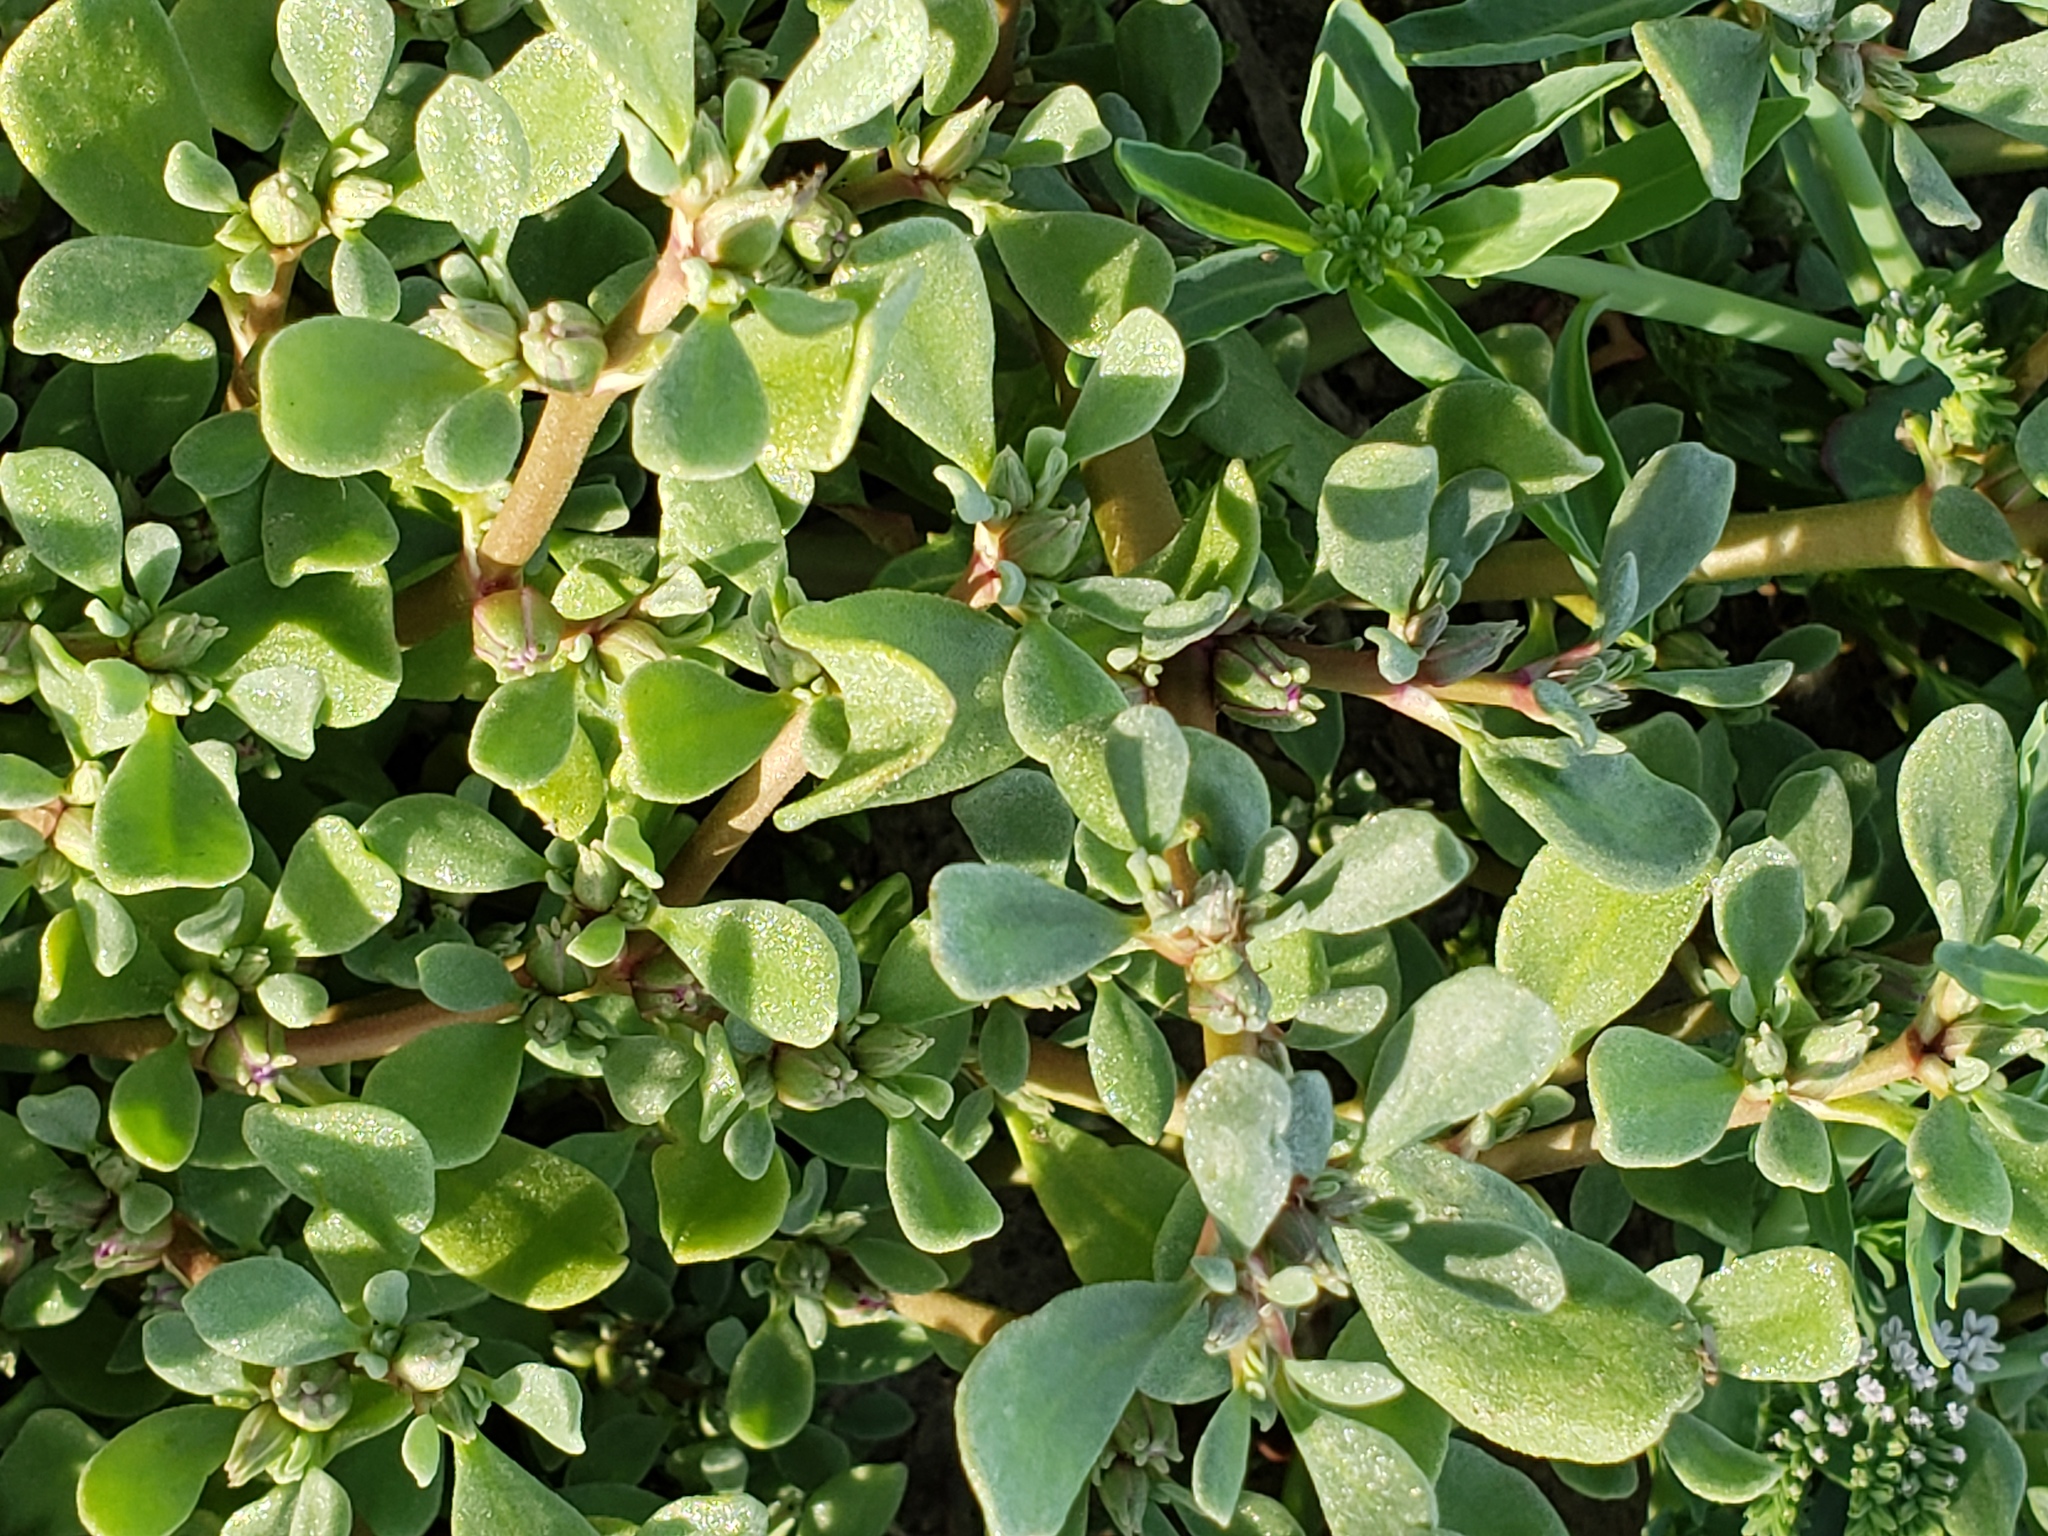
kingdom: Plantae
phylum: Tracheophyta
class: Magnoliopsida
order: Caryophyllales
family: Aizoaceae
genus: Sesuvium
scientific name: Sesuvium revolutifolium
